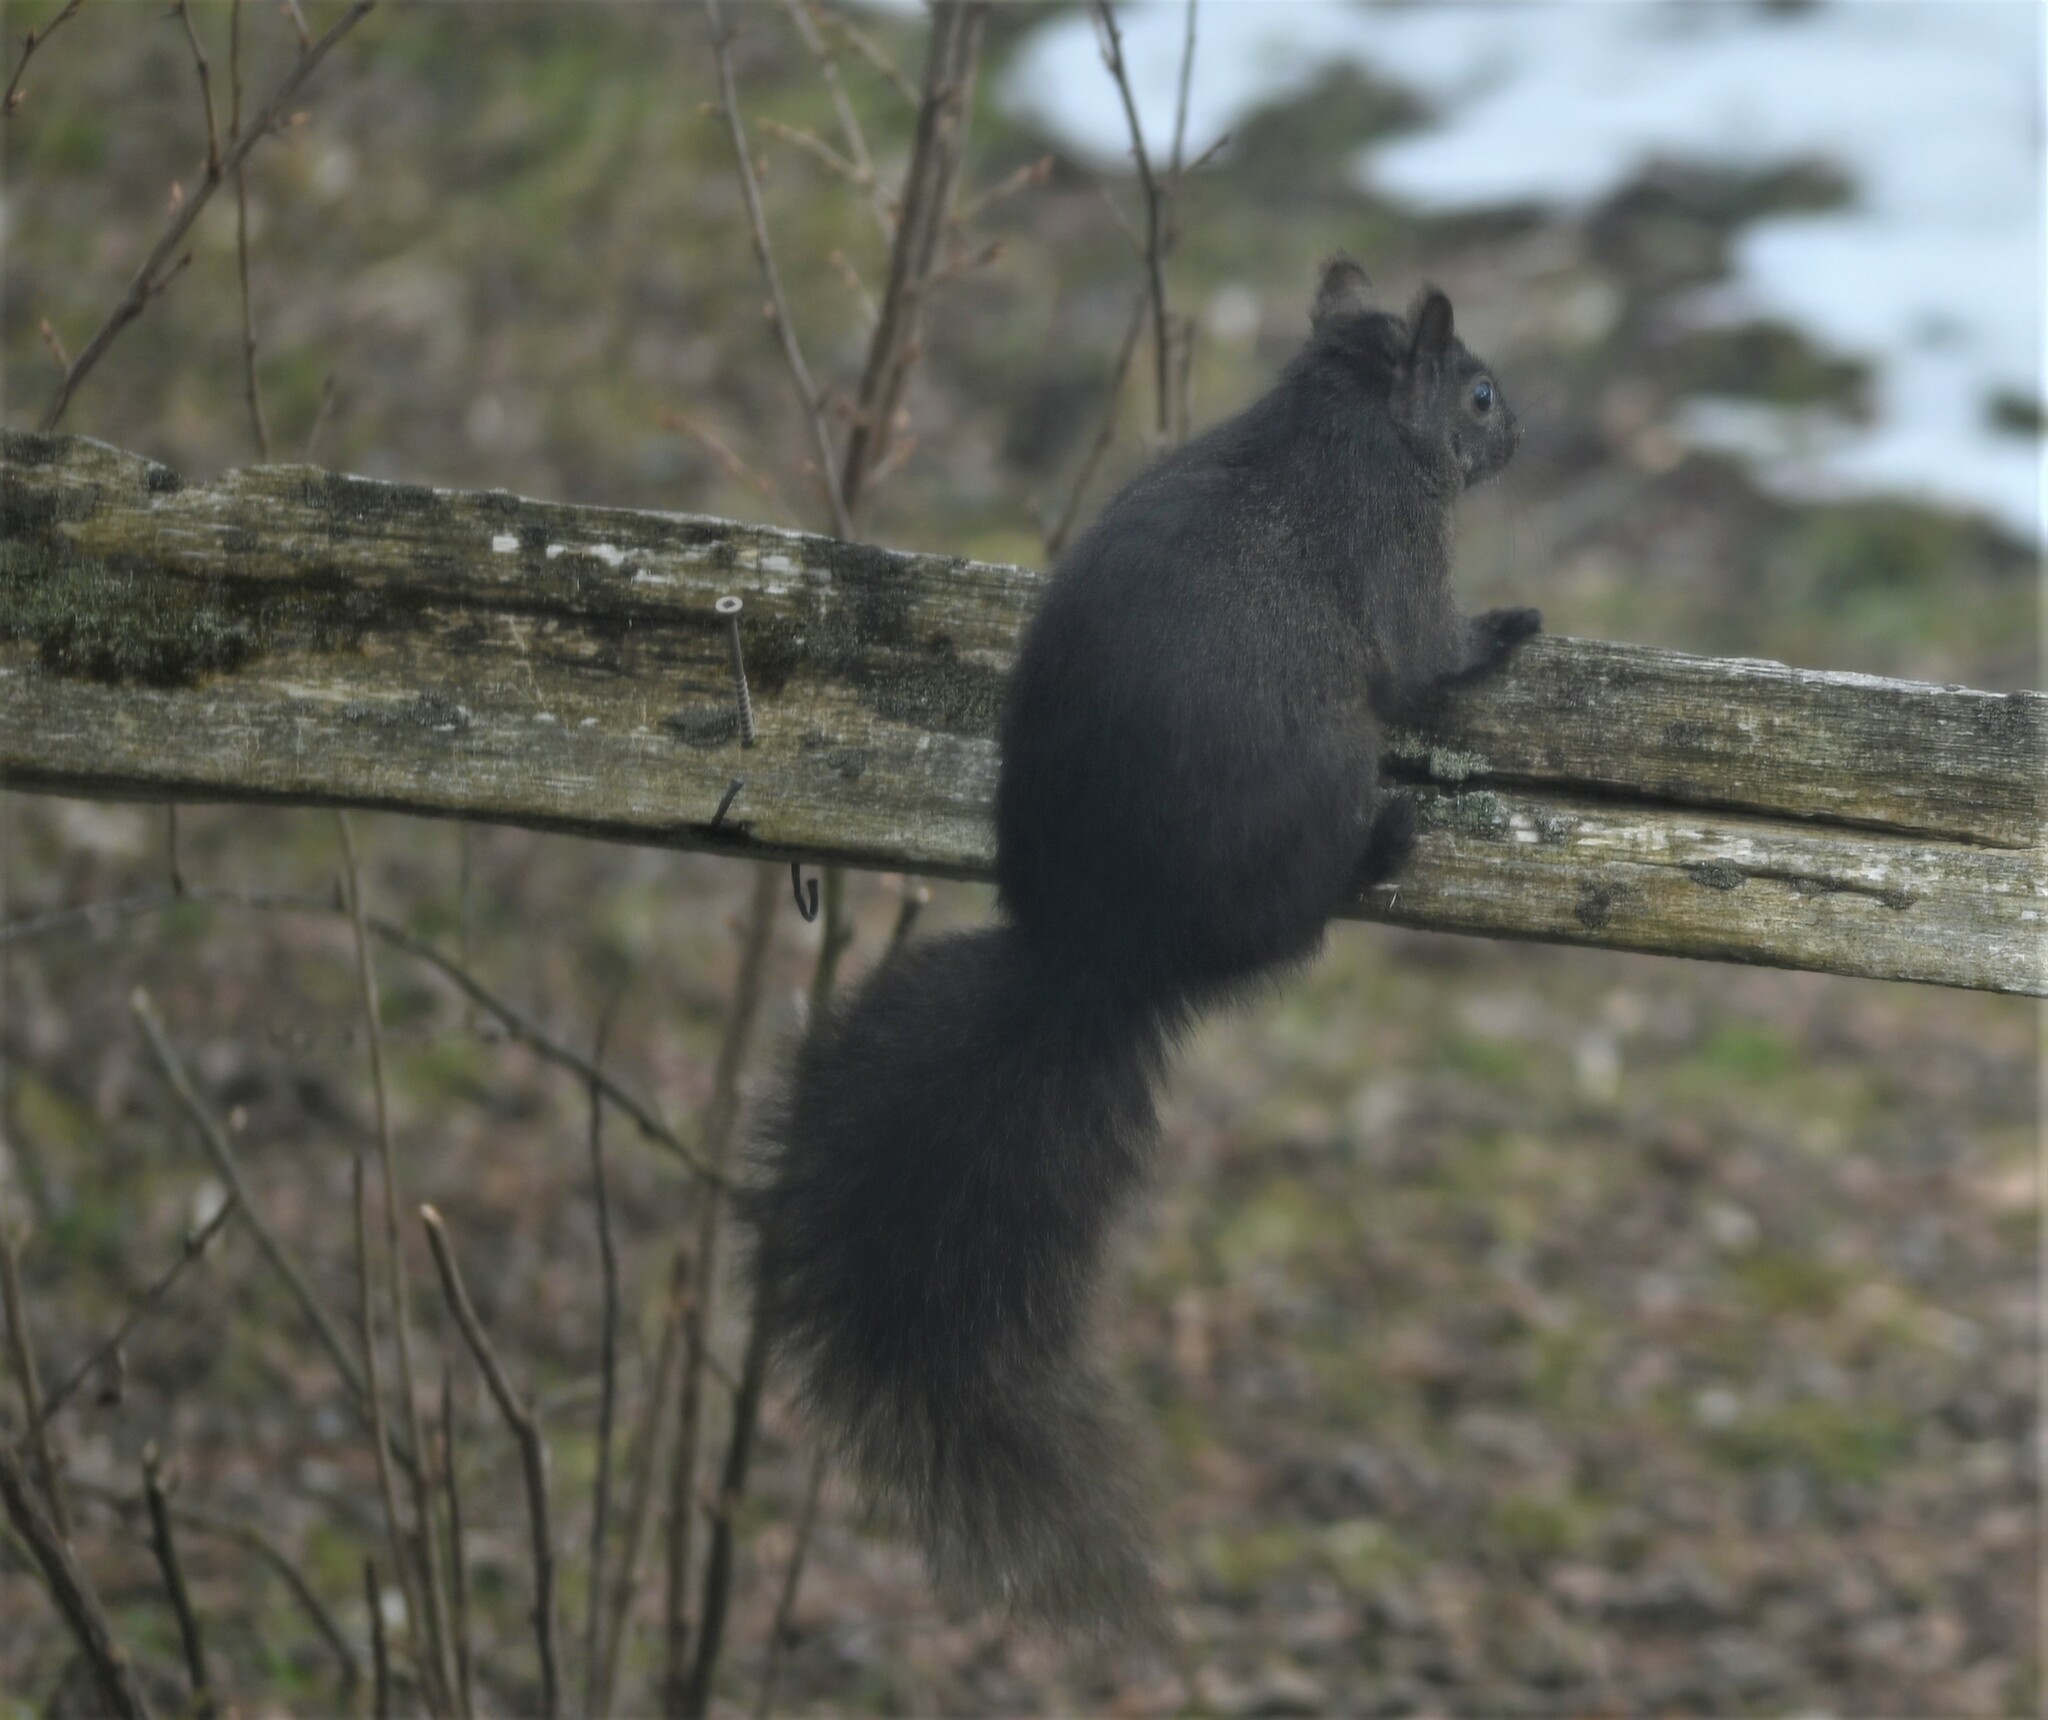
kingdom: Animalia
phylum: Chordata
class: Mammalia
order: Rodentia
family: Sciuridae
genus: Sciurus
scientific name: Sciurus carolinensis
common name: Eastern gray squirrel
